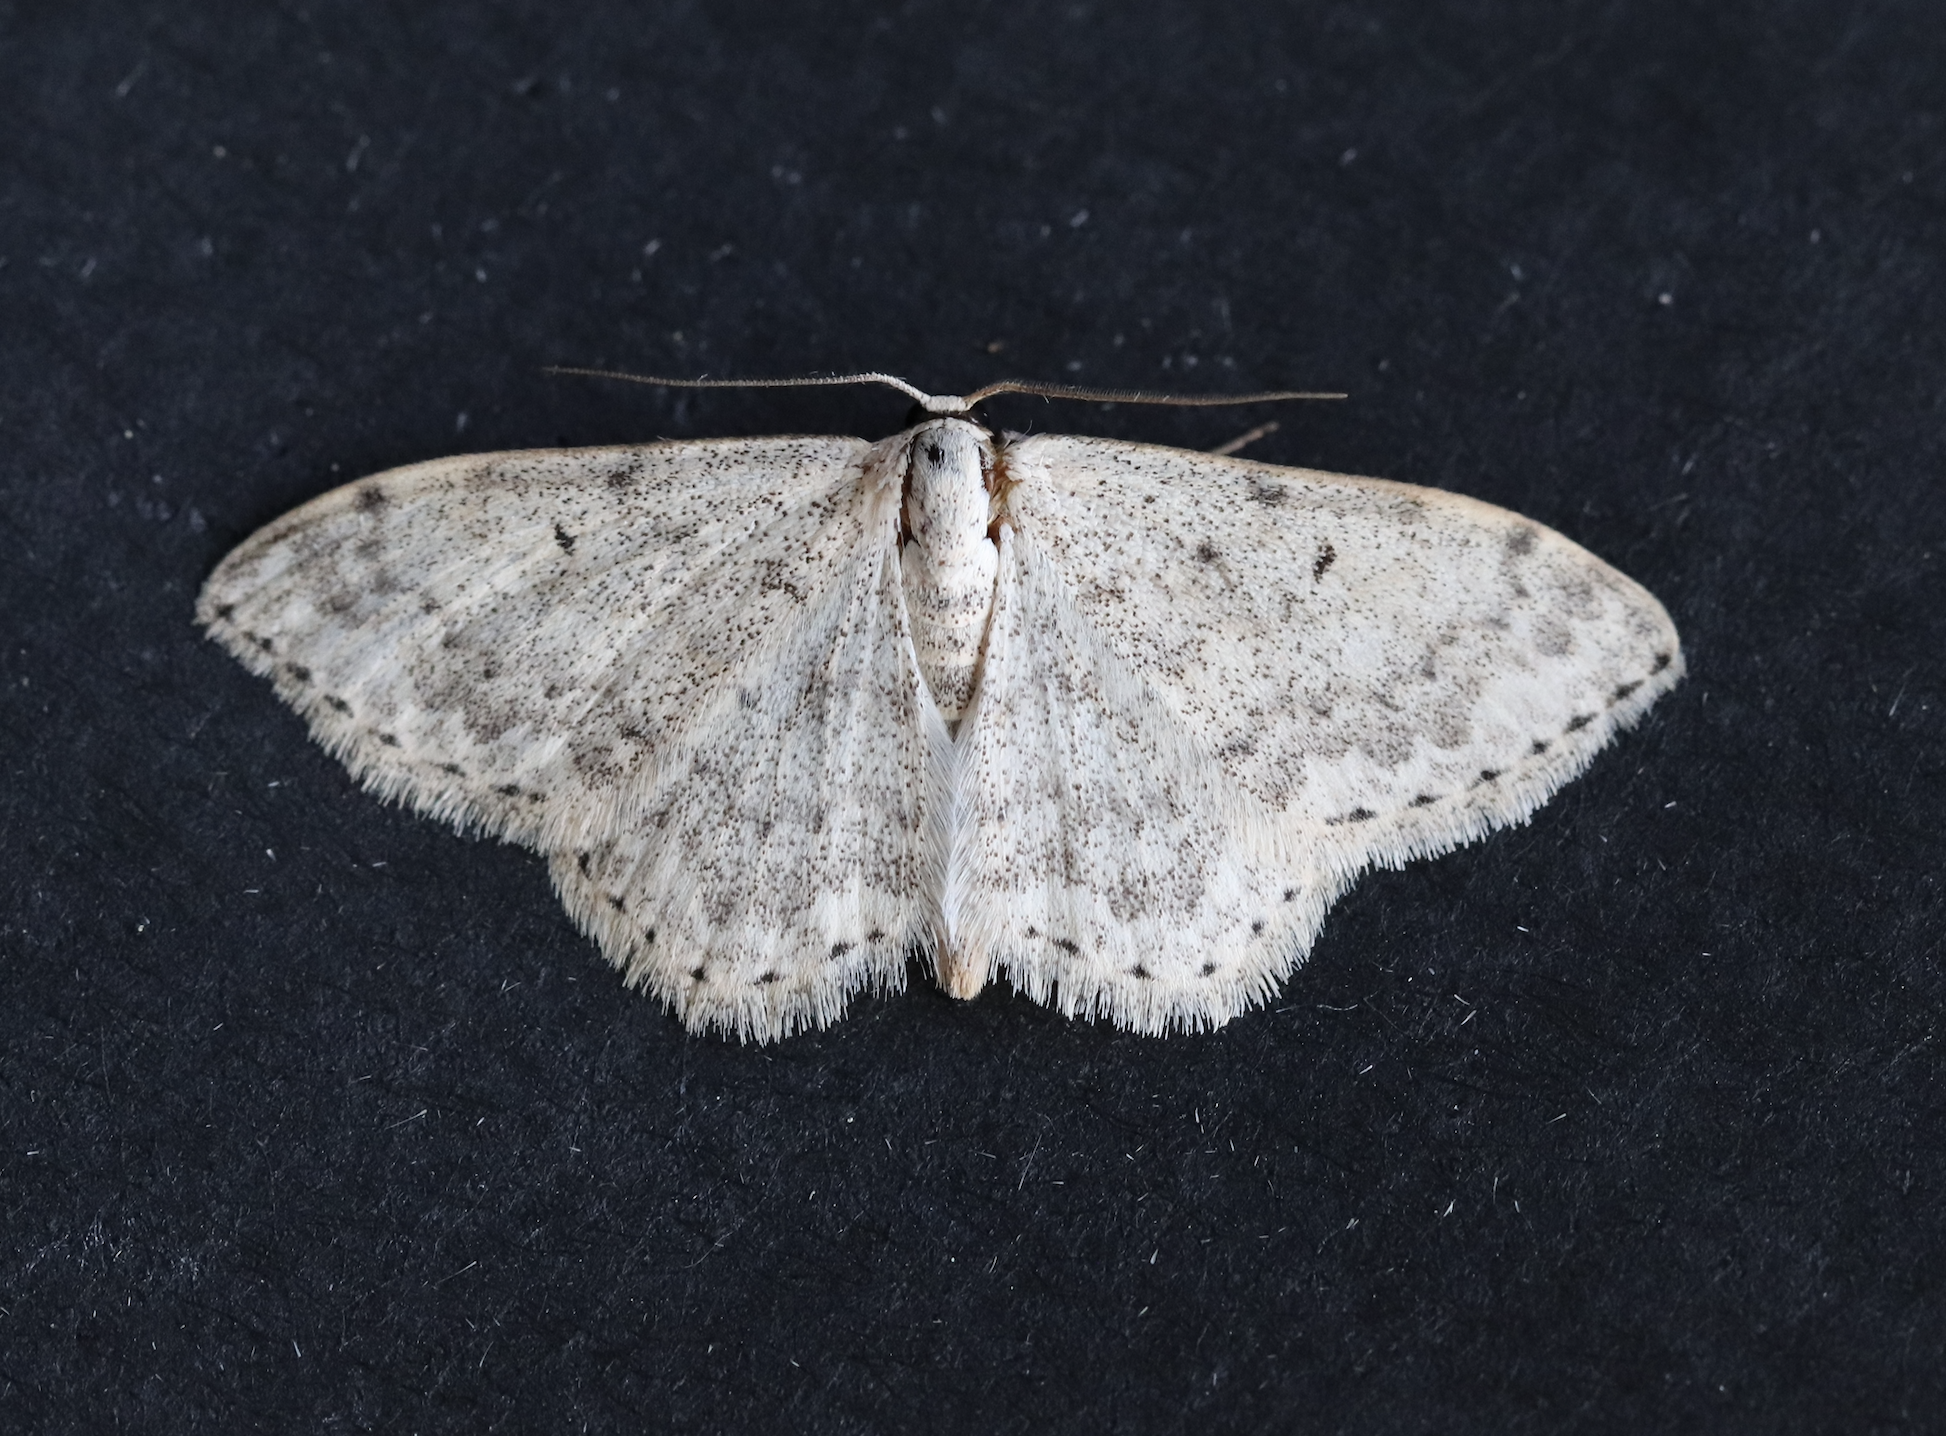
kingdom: Animalia
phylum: Arthropoda
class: Insecta
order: Lepidoptera
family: Geometridae
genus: Scopula
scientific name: Scopula marginepunctata
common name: Mullein wave
